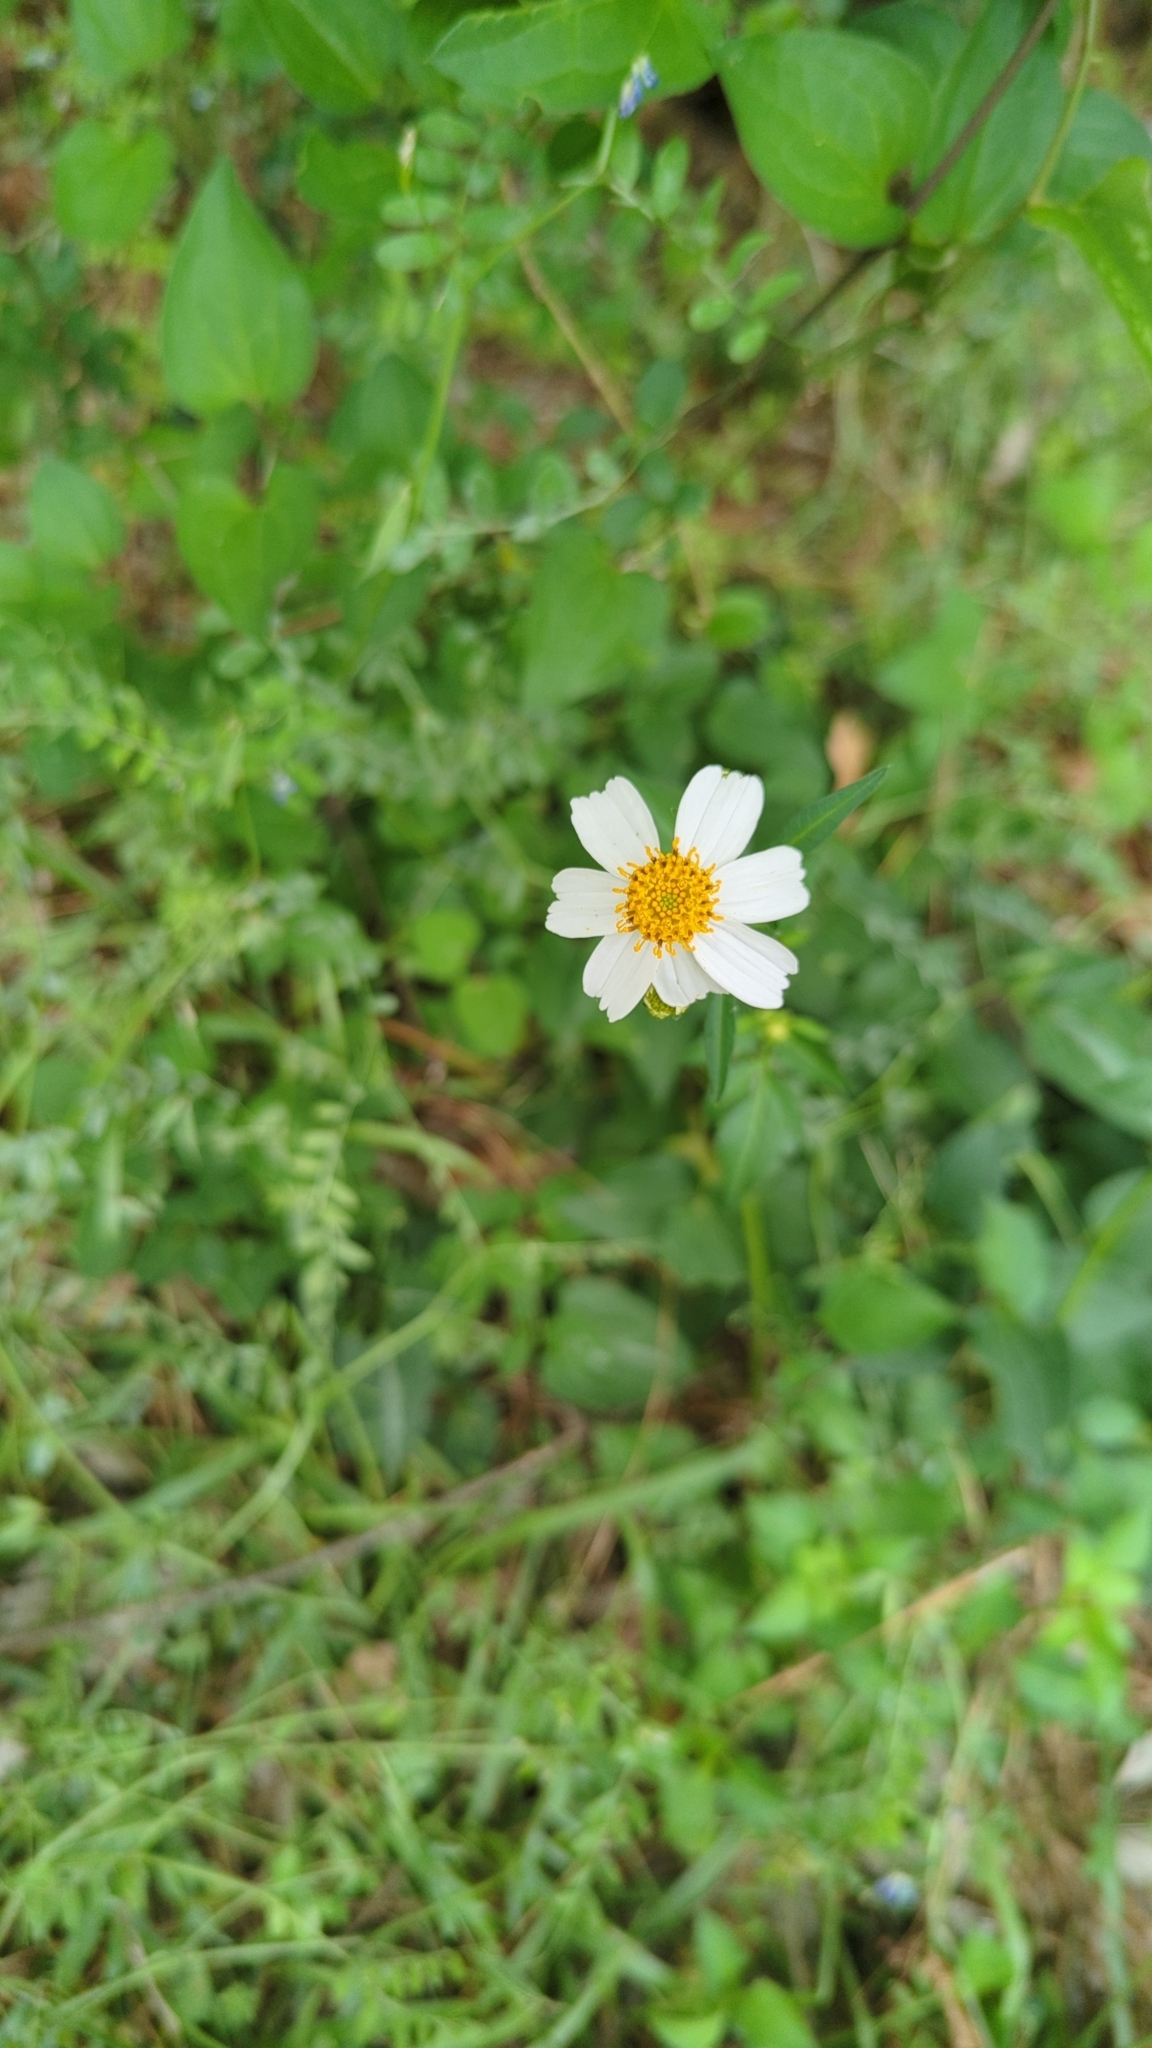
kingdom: Plantae
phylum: Tracheophyta
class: Magnoliopsida
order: Asterales
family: Asteraceae
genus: Bidens
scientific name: Bidens alba
